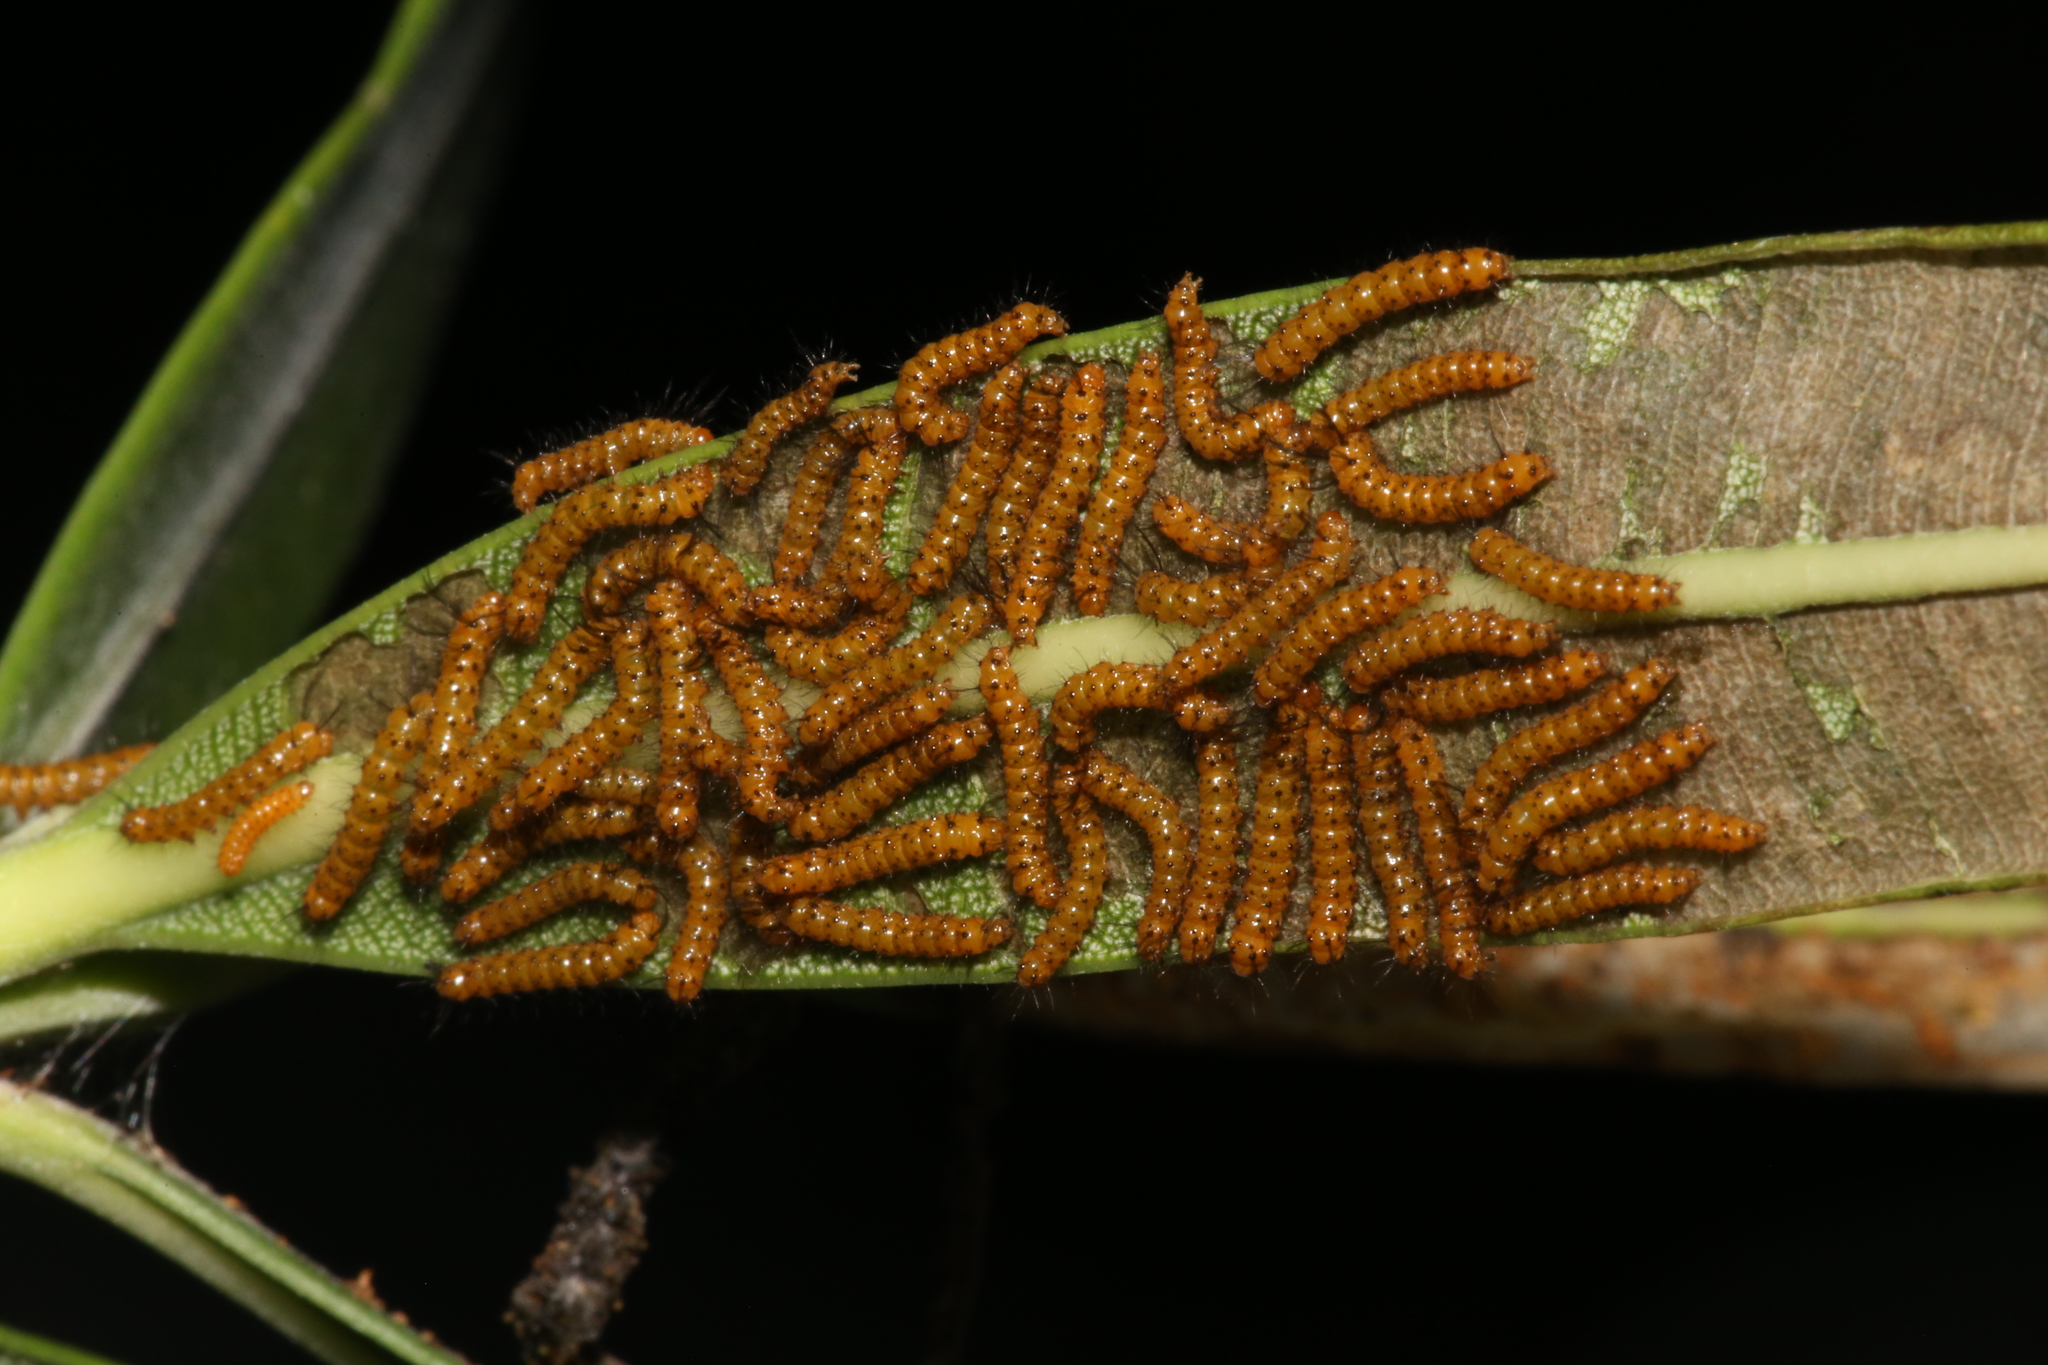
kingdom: Animalia
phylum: Arthropoda
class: Insecta
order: Lepidoptera
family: Erebidae
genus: Syntomeida
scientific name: Syntomeida epilais
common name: Polka-dot wasp moth
